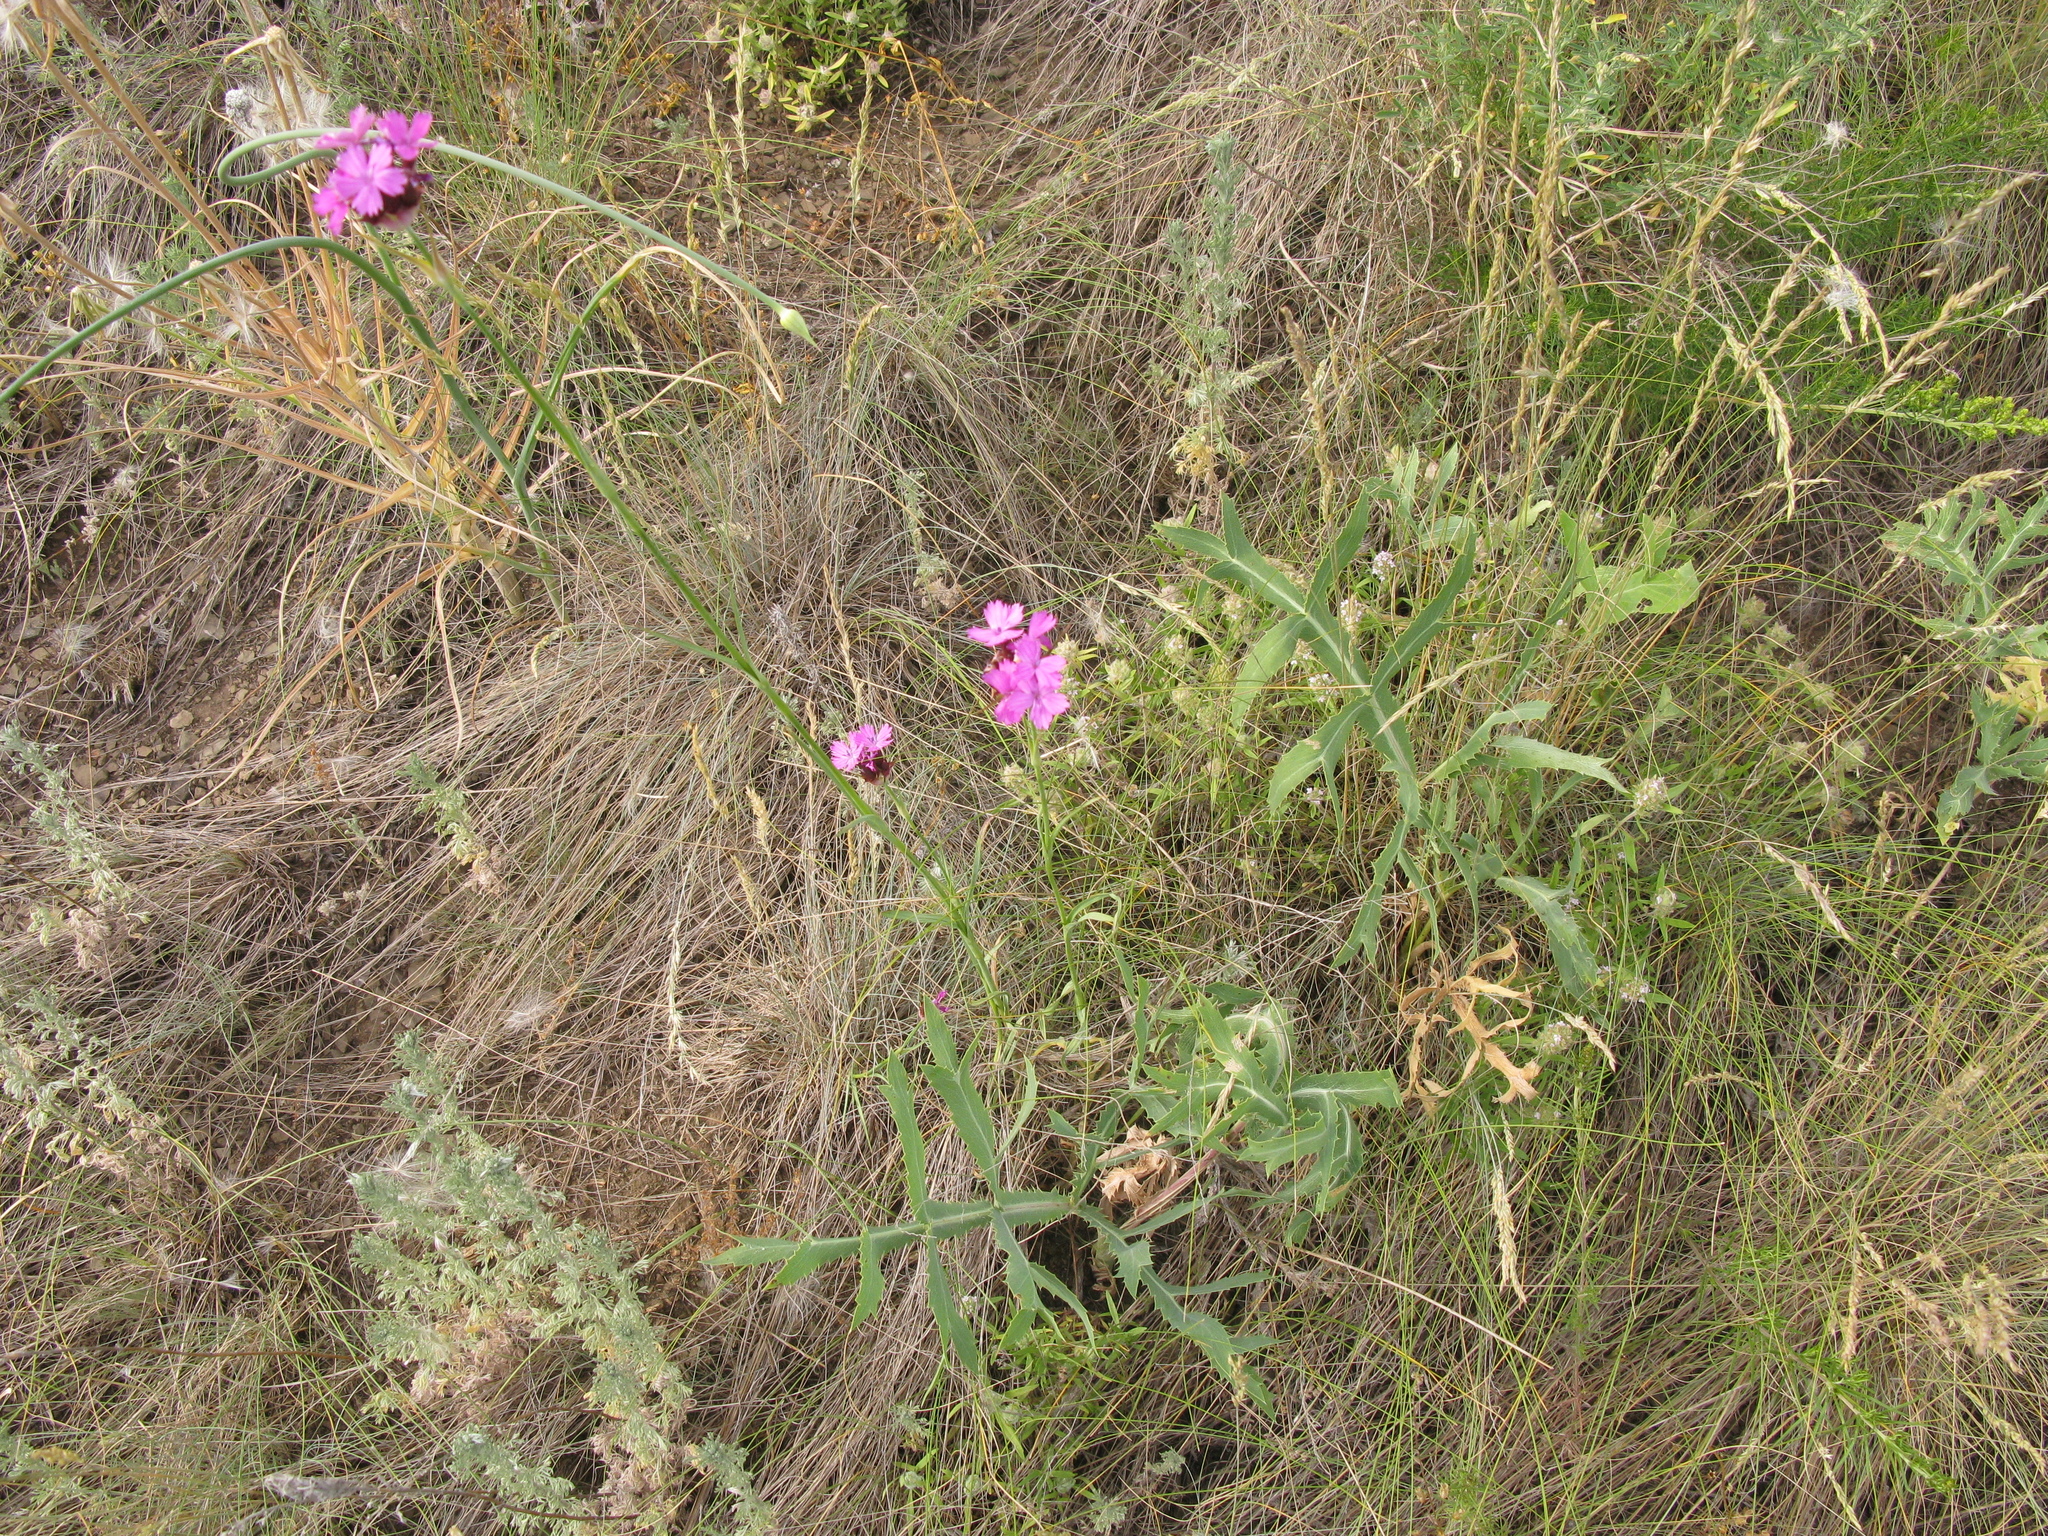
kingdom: Plantae
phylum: Tracheophyta
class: Magnoliopsida
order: Caryophyllales
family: Caryophyllaceae
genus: Dianthus
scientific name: Dianthus capitatus
